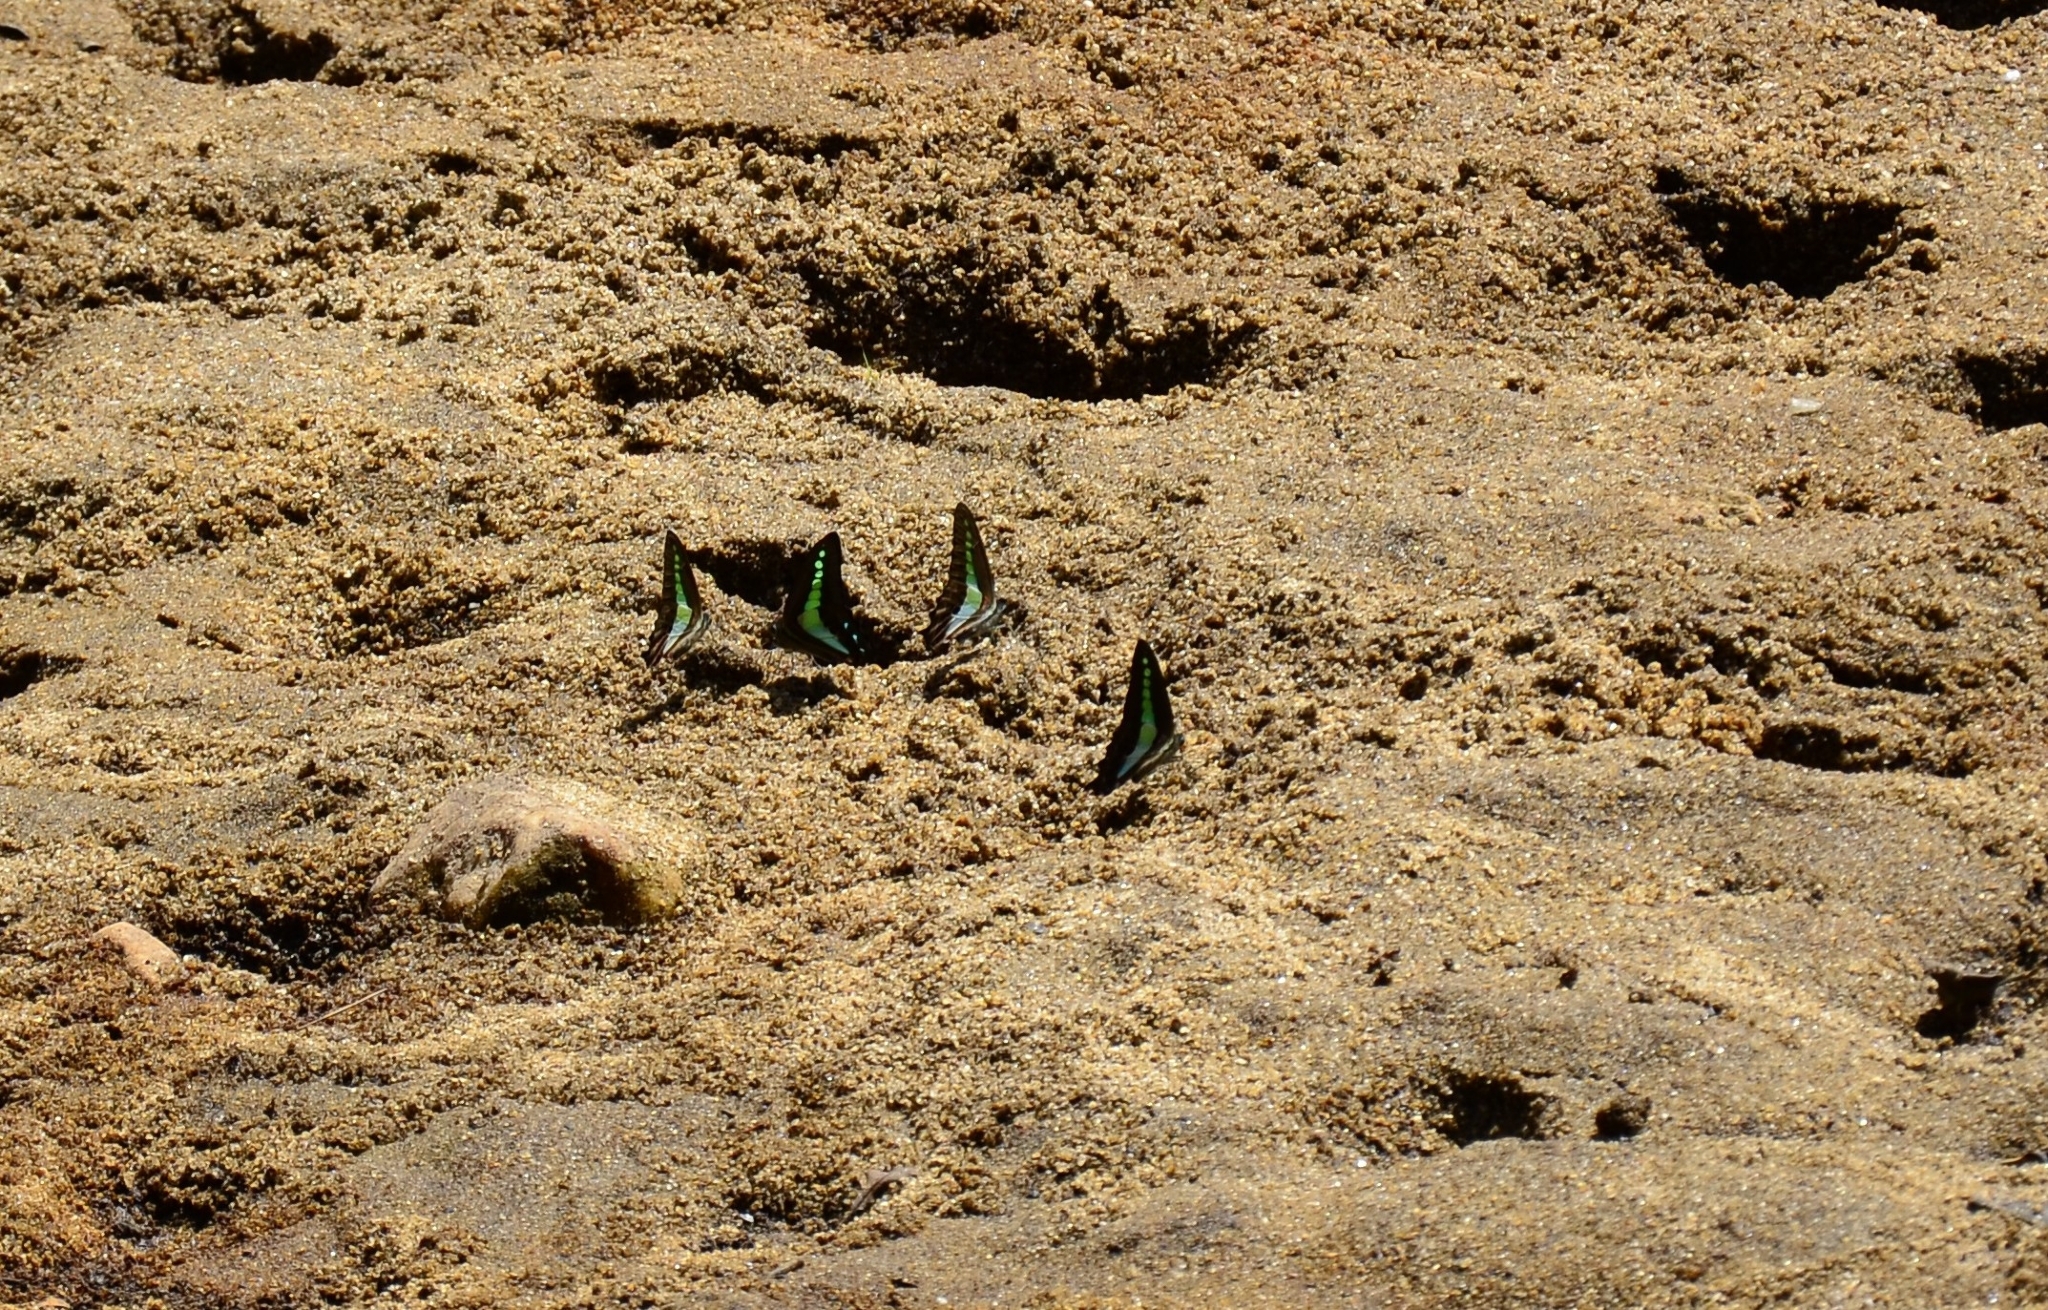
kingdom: Animalia
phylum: Arthropoda
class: Insecta
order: Lepidoptera
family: Papilionidae
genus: Graphium
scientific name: Graphium
